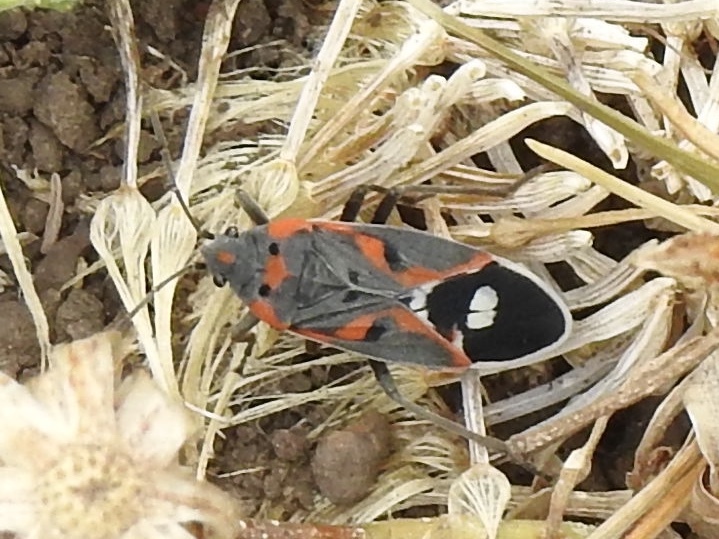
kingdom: Animalia
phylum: Arthropoda
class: Insecta
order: Hemiptera
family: Lygaeidae
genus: Lygaeus
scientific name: Lygaeus kalmii
